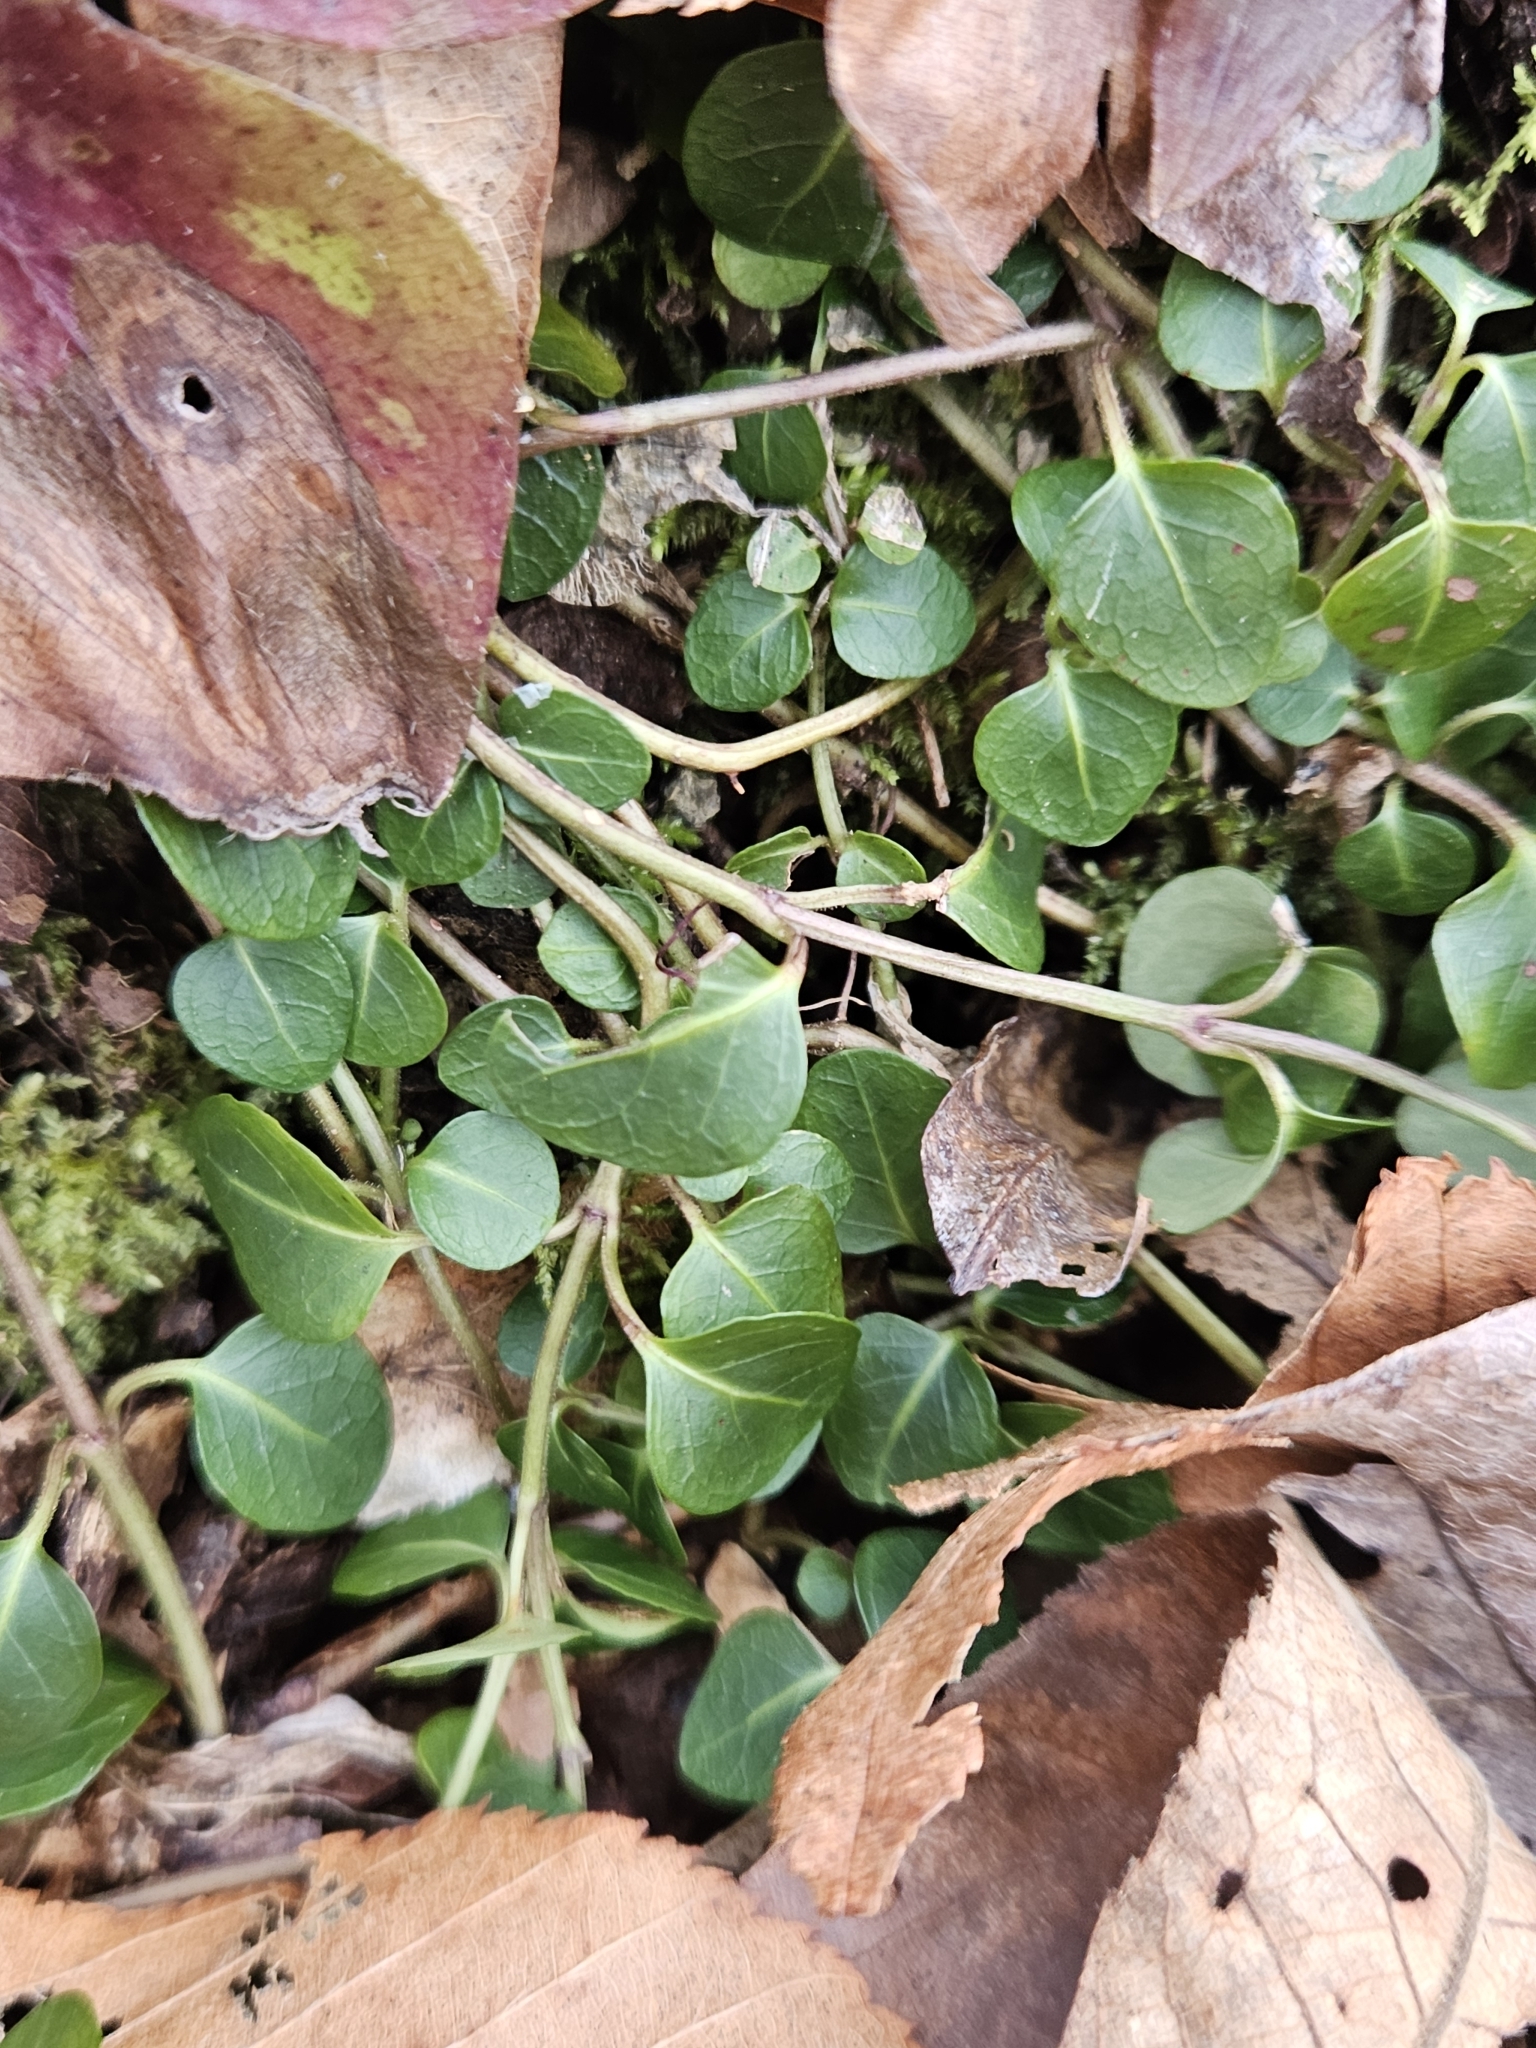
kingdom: Plantae
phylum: Tracheophyta
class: Magnoliopsida
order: Gentianales
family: Rubiaceae
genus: Mitchella
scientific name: Mitchella repens
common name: Partridge-berry
